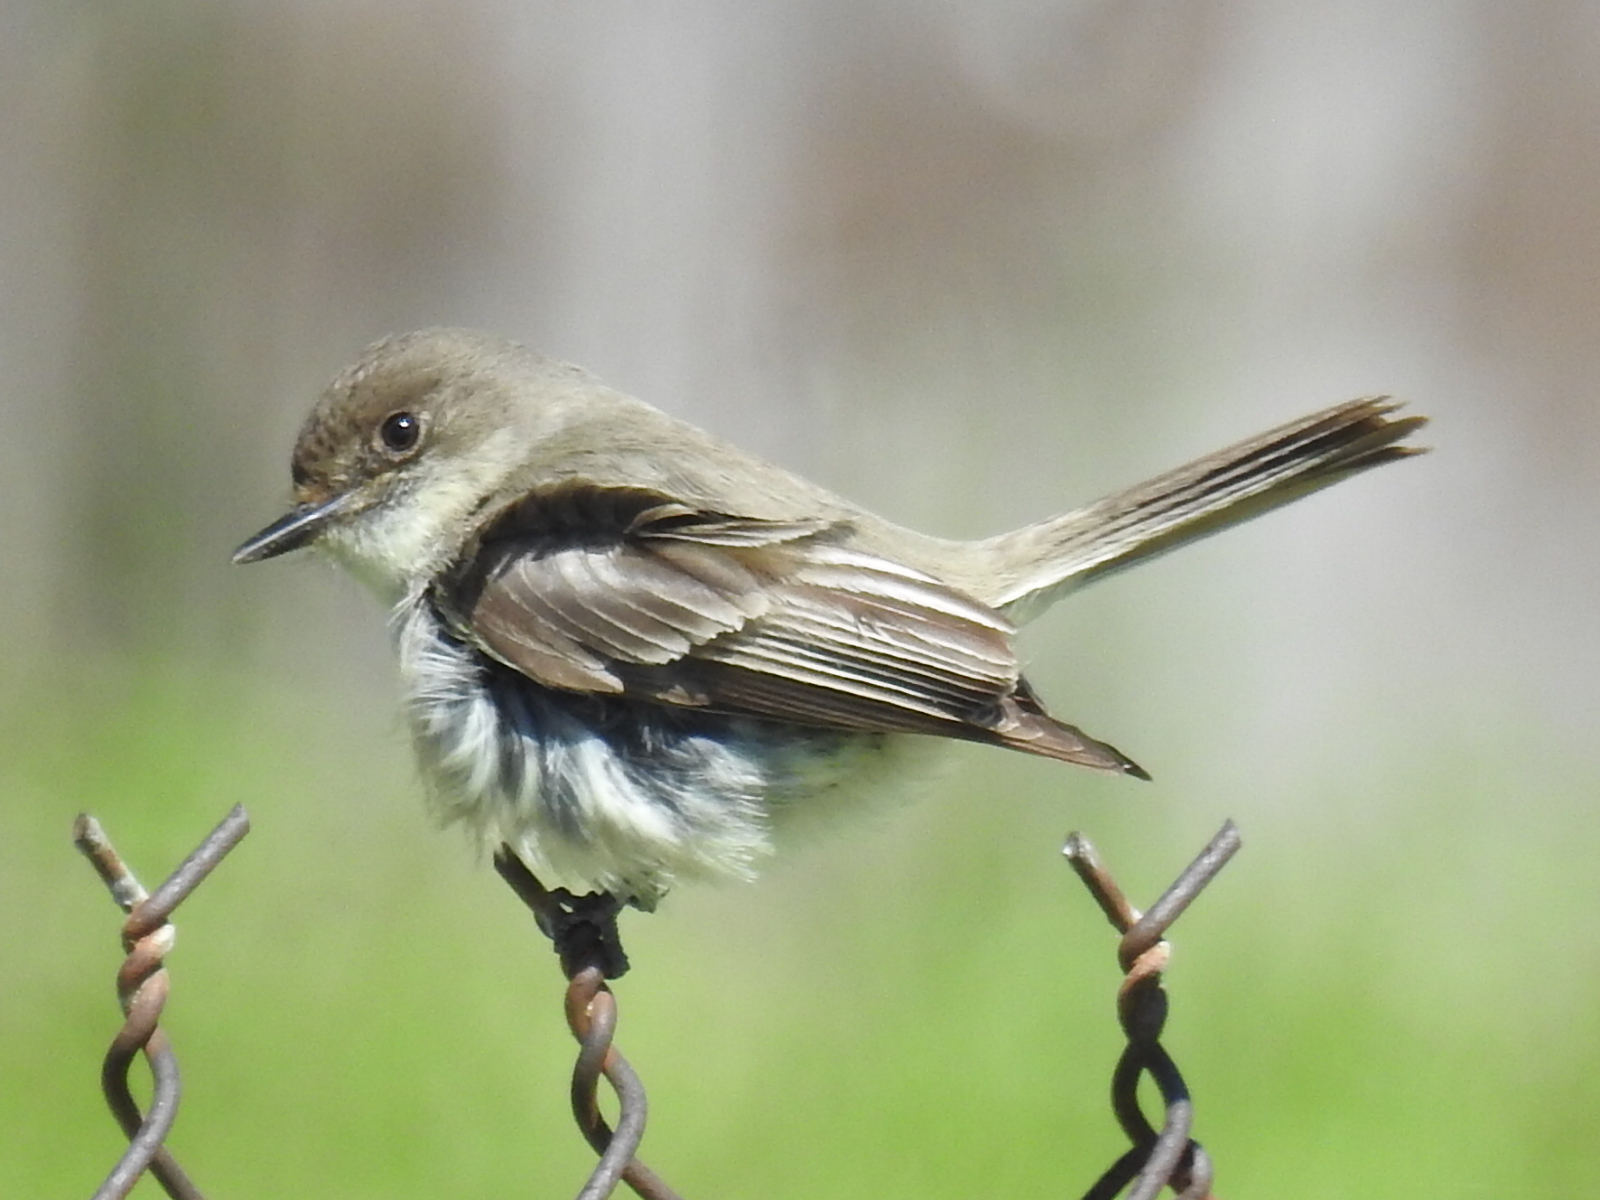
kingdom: Animalia
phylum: Chordata
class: Aves
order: Passeriformes
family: Tyrannidae
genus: Sayornis
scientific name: Sayornis phoebe
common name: Eastern phoebe
